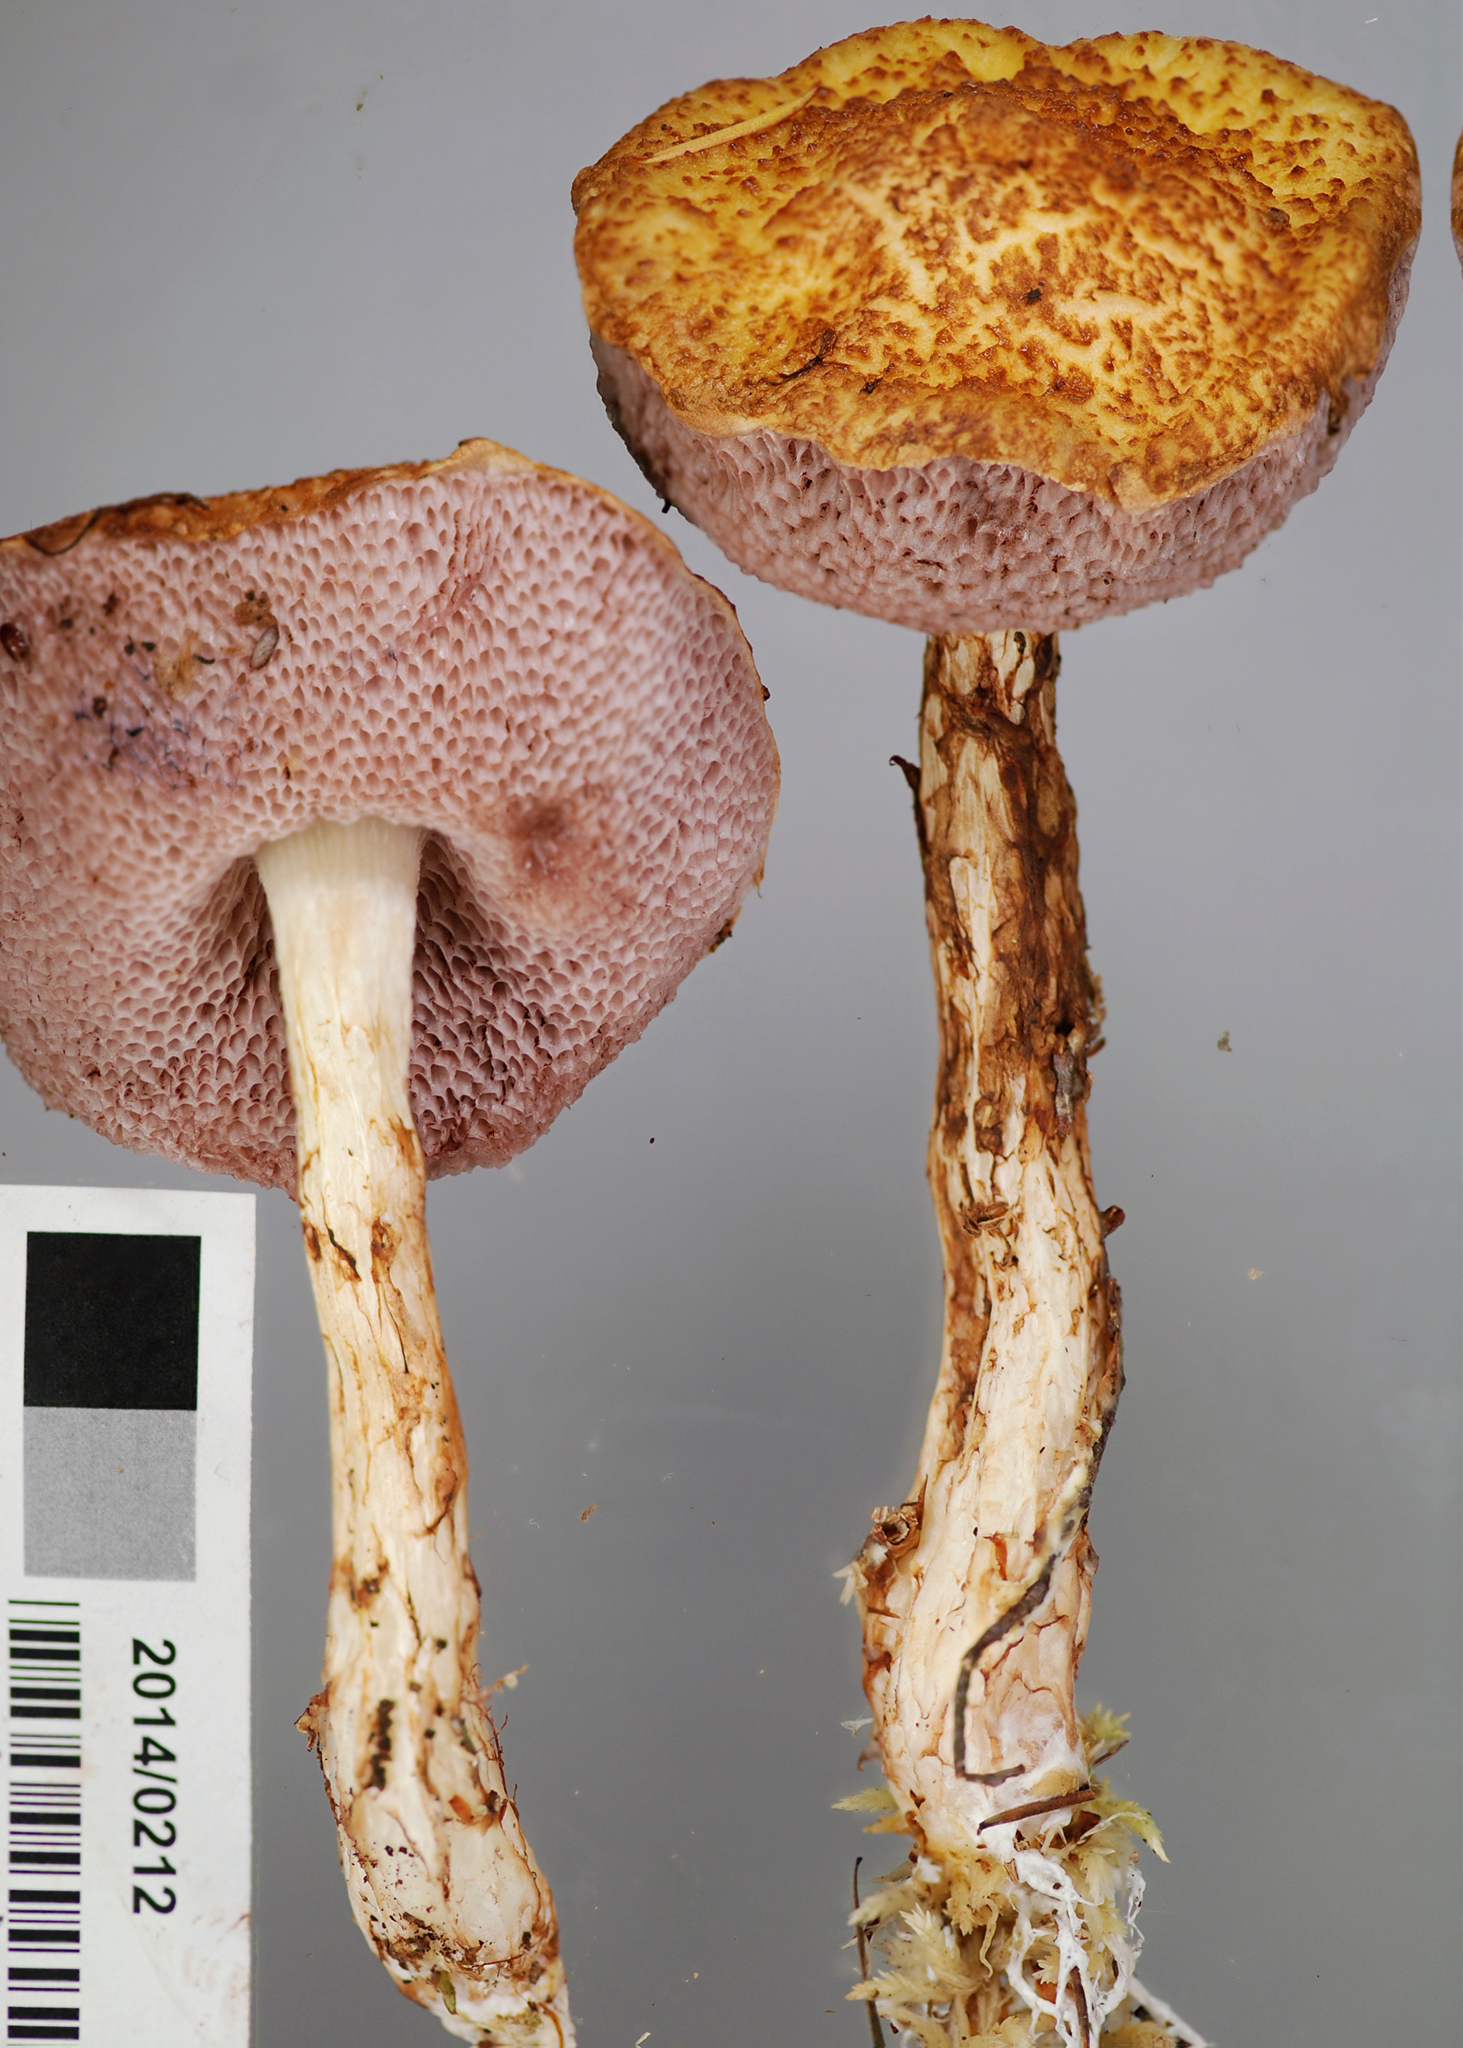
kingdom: Fungi
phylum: Basidiomycota
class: Agaricomycetes
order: Boletales
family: Boletaceae
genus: Austroboletus
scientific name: Austroboletus lacunosus
